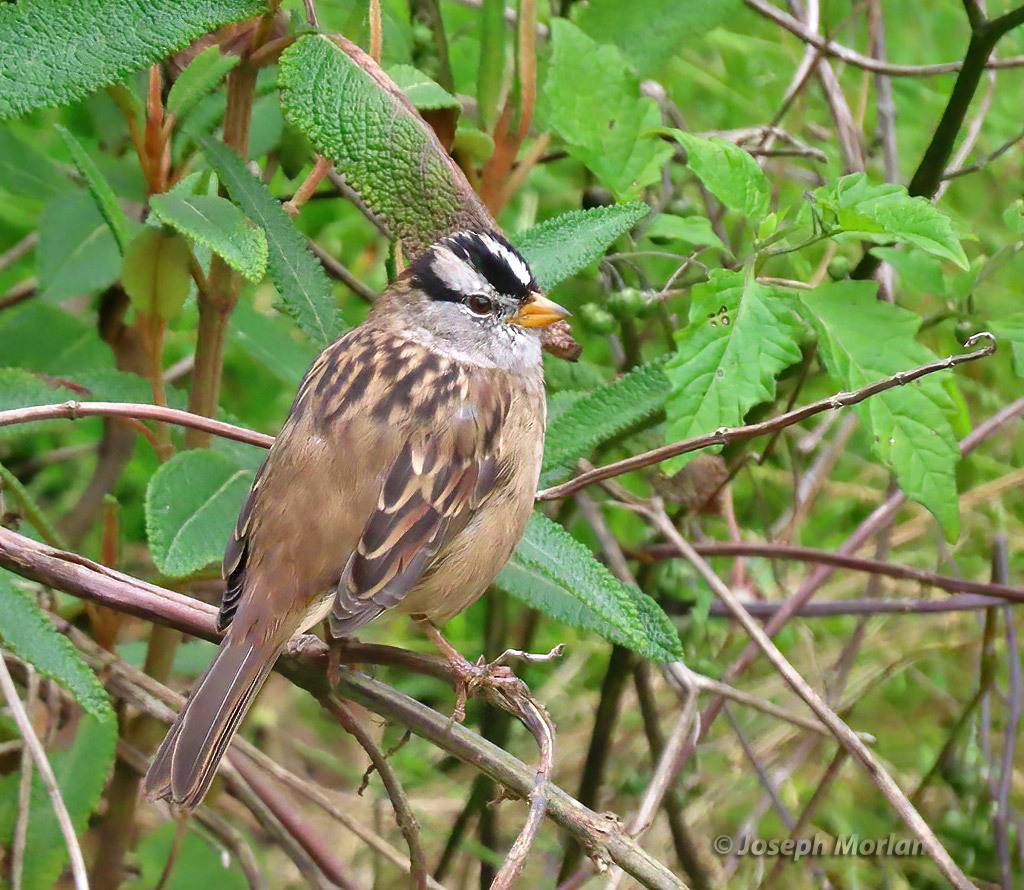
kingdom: Animalia
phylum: Chordata
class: Aves
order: Passeriformes
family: Passerellidae
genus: Zonotrichia
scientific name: Zonotrichia leucophrys
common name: White-crowned sparrow
